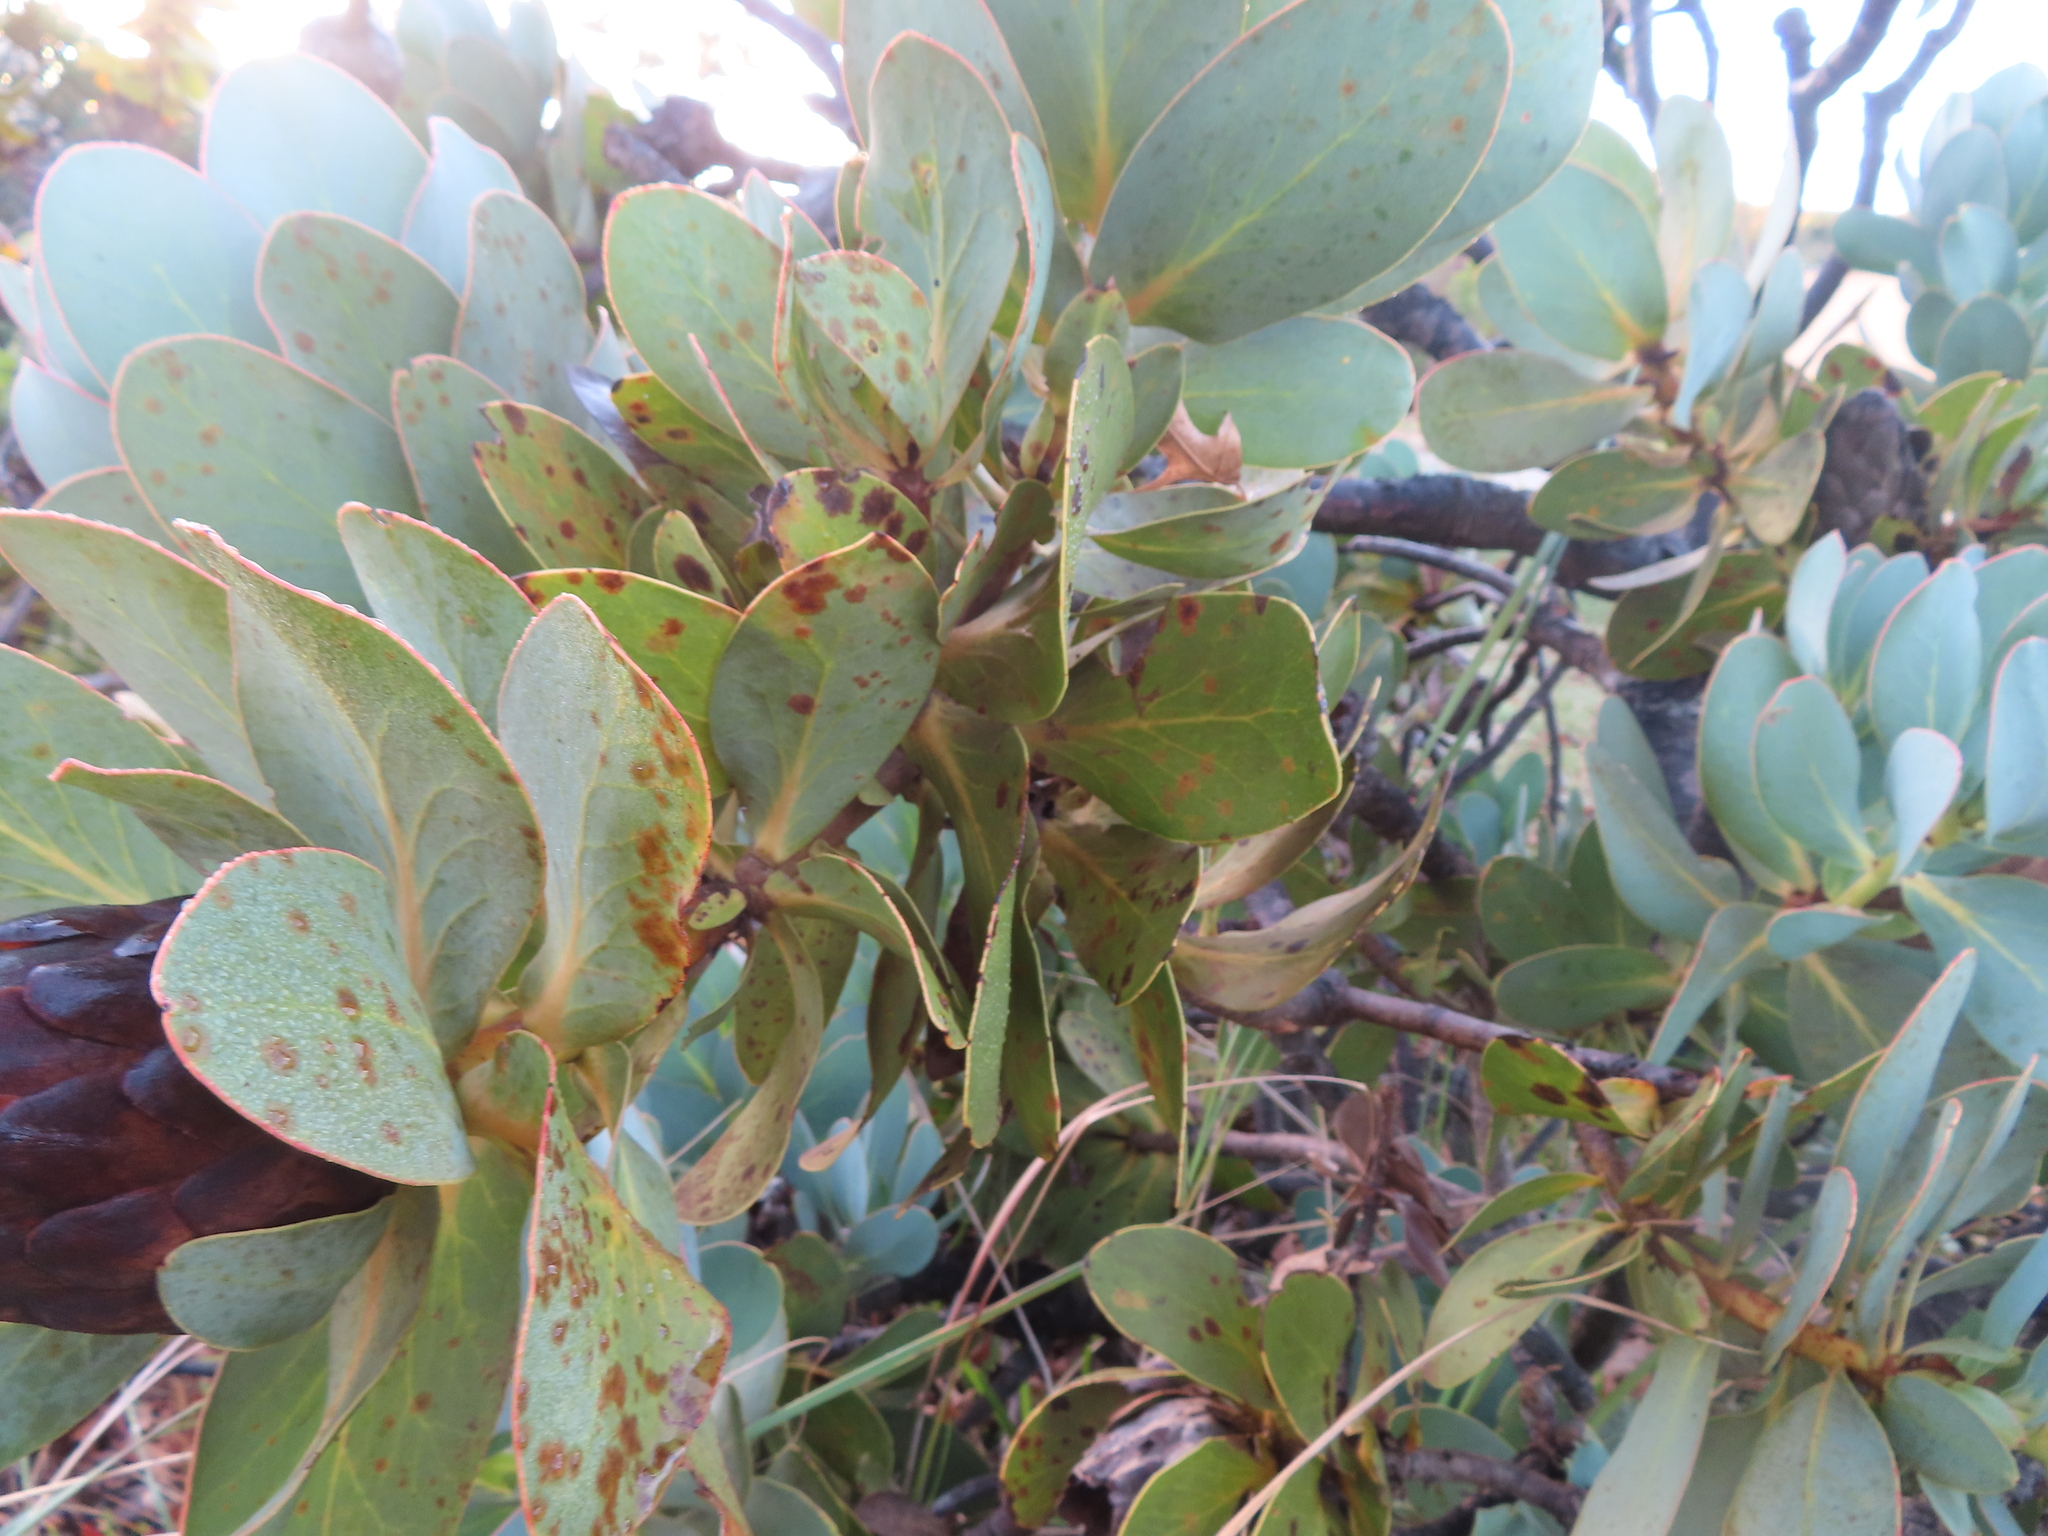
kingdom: Plantae
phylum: Tracheophyta
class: Magnoliopsida
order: Proteales
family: Proteaceae
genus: Protea
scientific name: Protea grandiceps
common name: Red sugarbush
